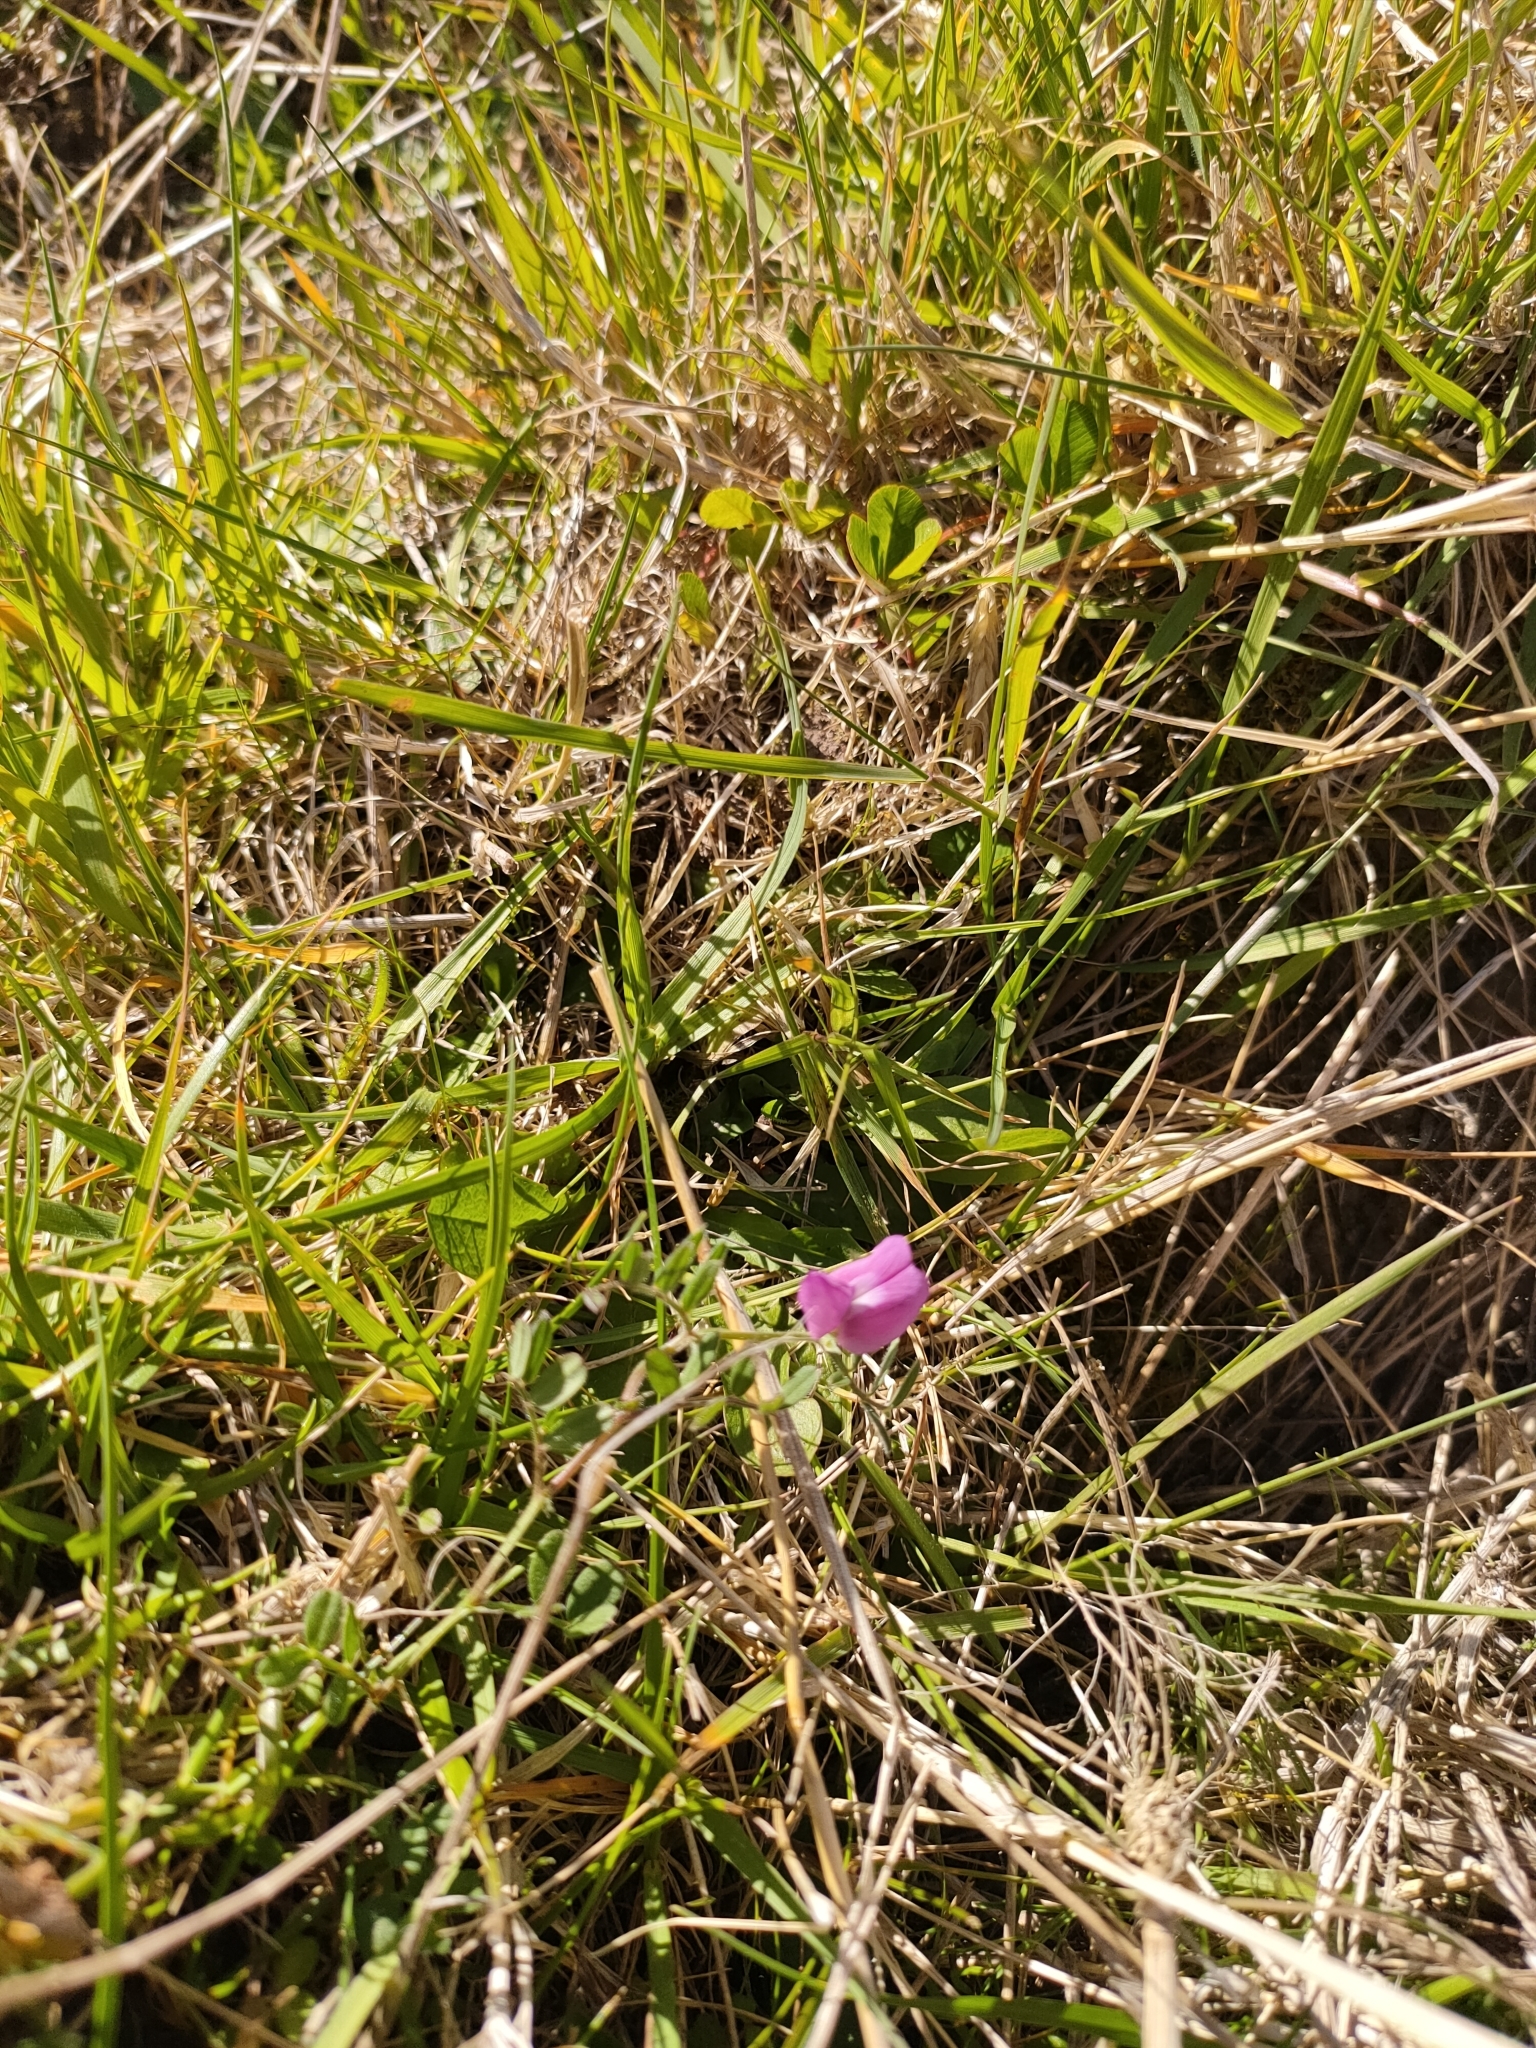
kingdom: Plantae
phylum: Tracheophyta
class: Magnoliopsida
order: Fabales
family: Fabaceae
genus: Vicia
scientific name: Vicia sativa
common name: Garden vetch
